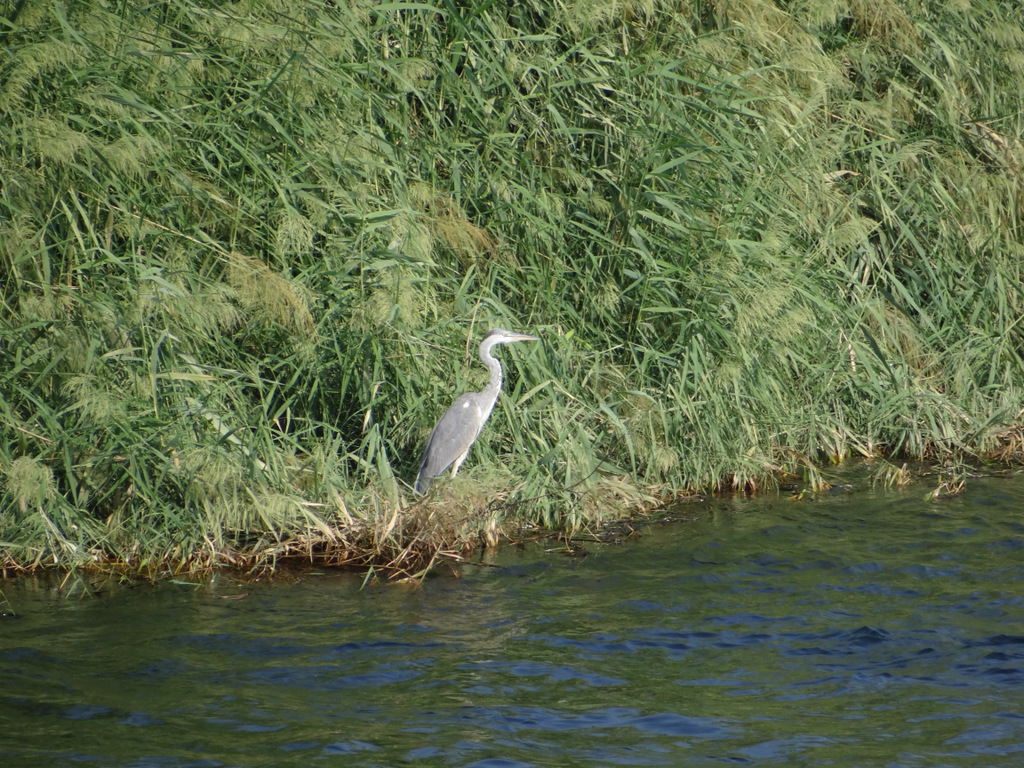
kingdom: Animalia
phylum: Chordata
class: Aves
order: Pelecaniformes
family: Ardeidae
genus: Ardea
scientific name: Ardea cinerea
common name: Grey heron
